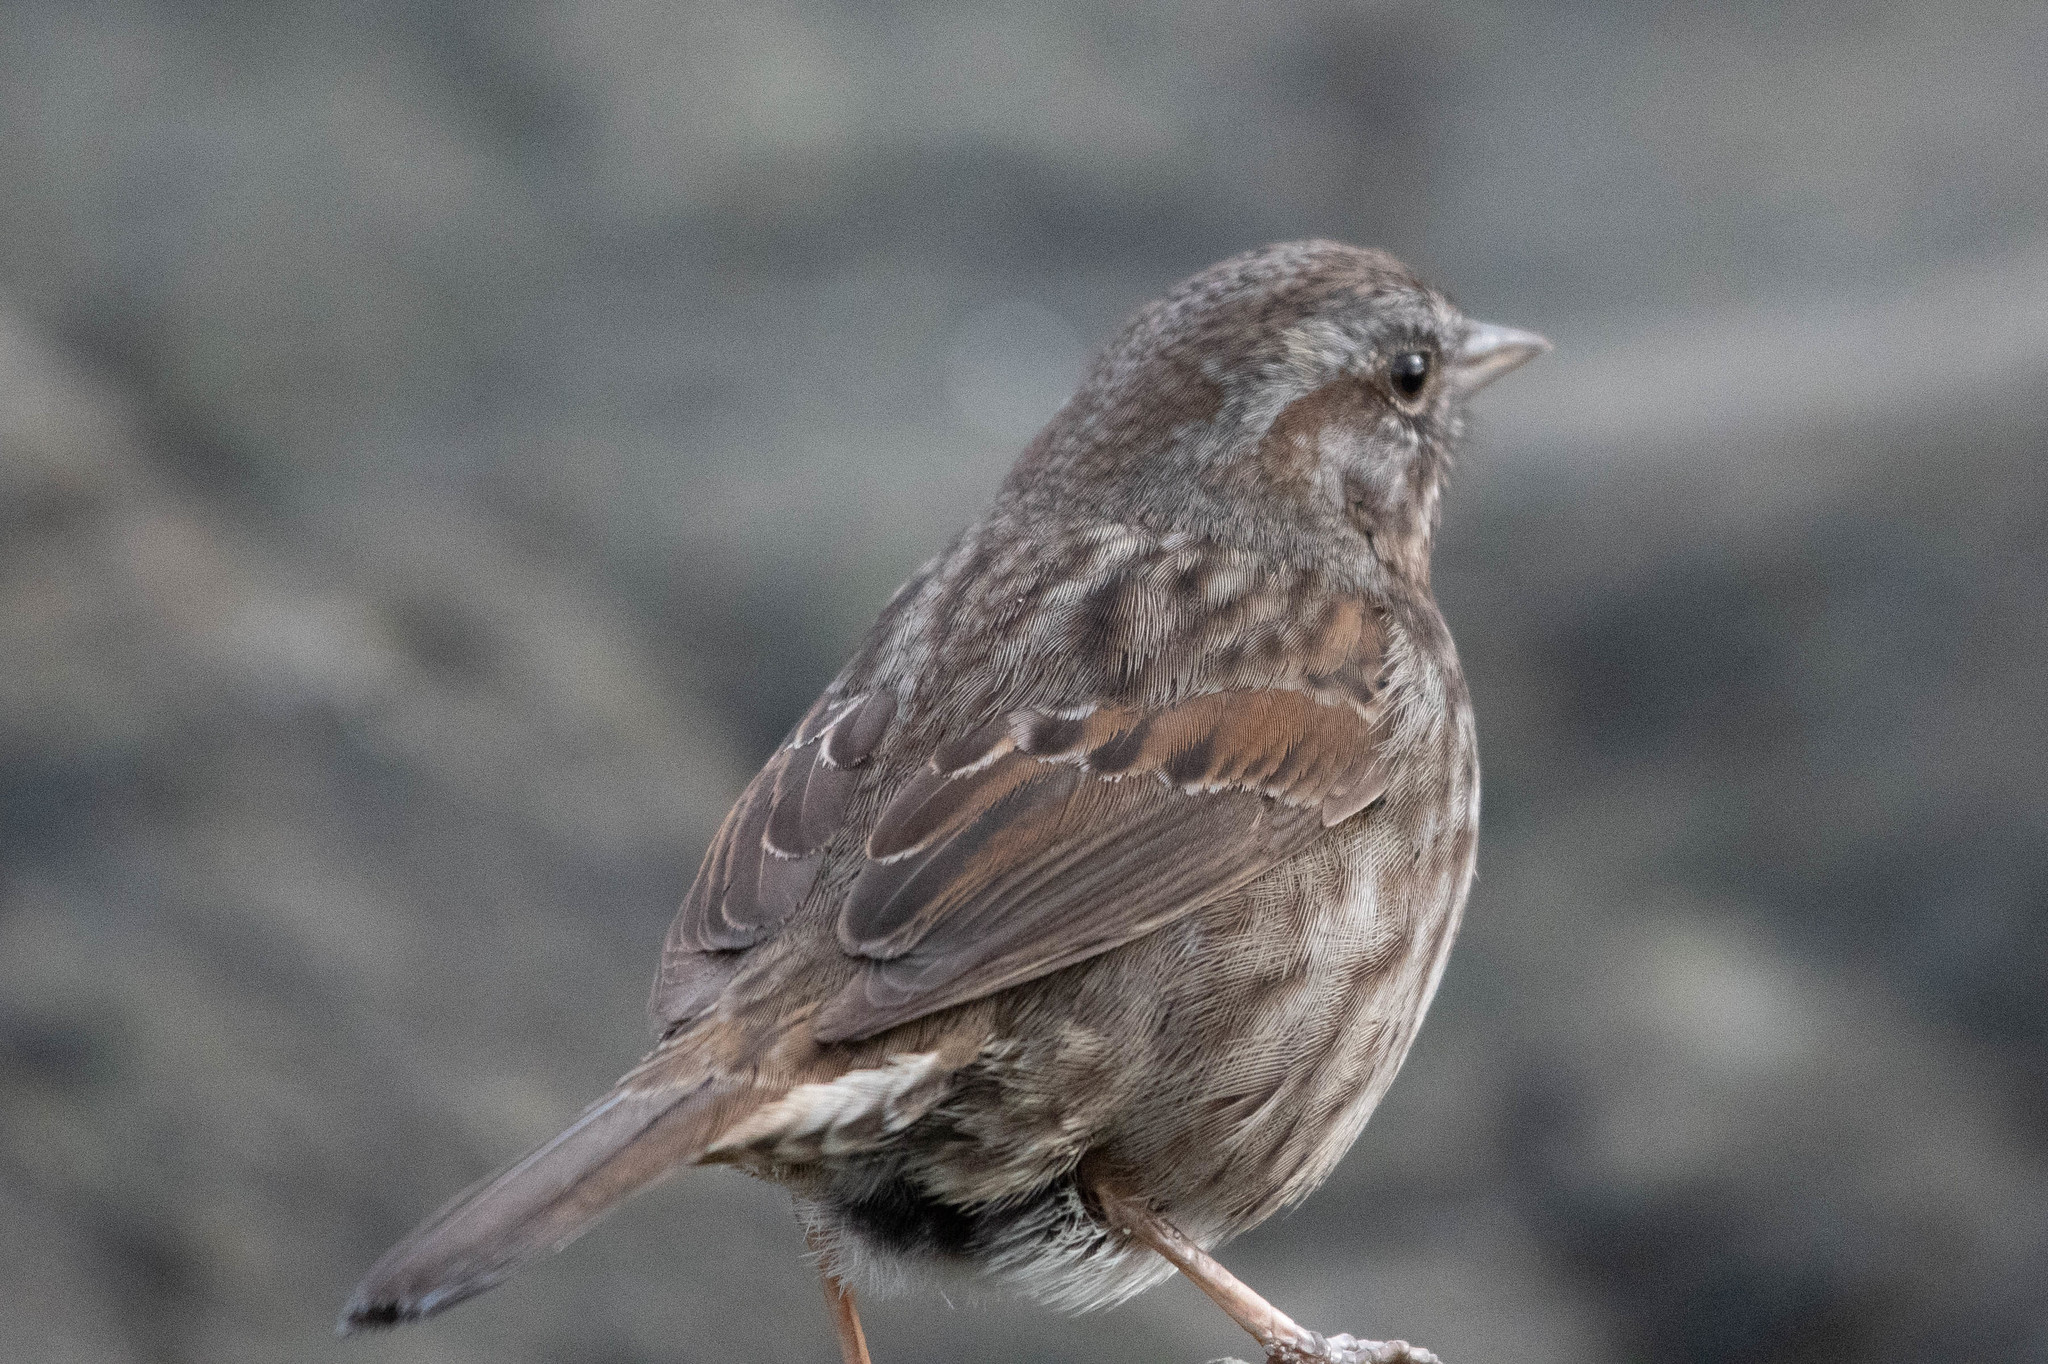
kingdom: Animalia
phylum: Chordata
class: Aves
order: Passeriformes
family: Passerellidae
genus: Melospiza
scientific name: Melospiza melodia
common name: Song sparrow
